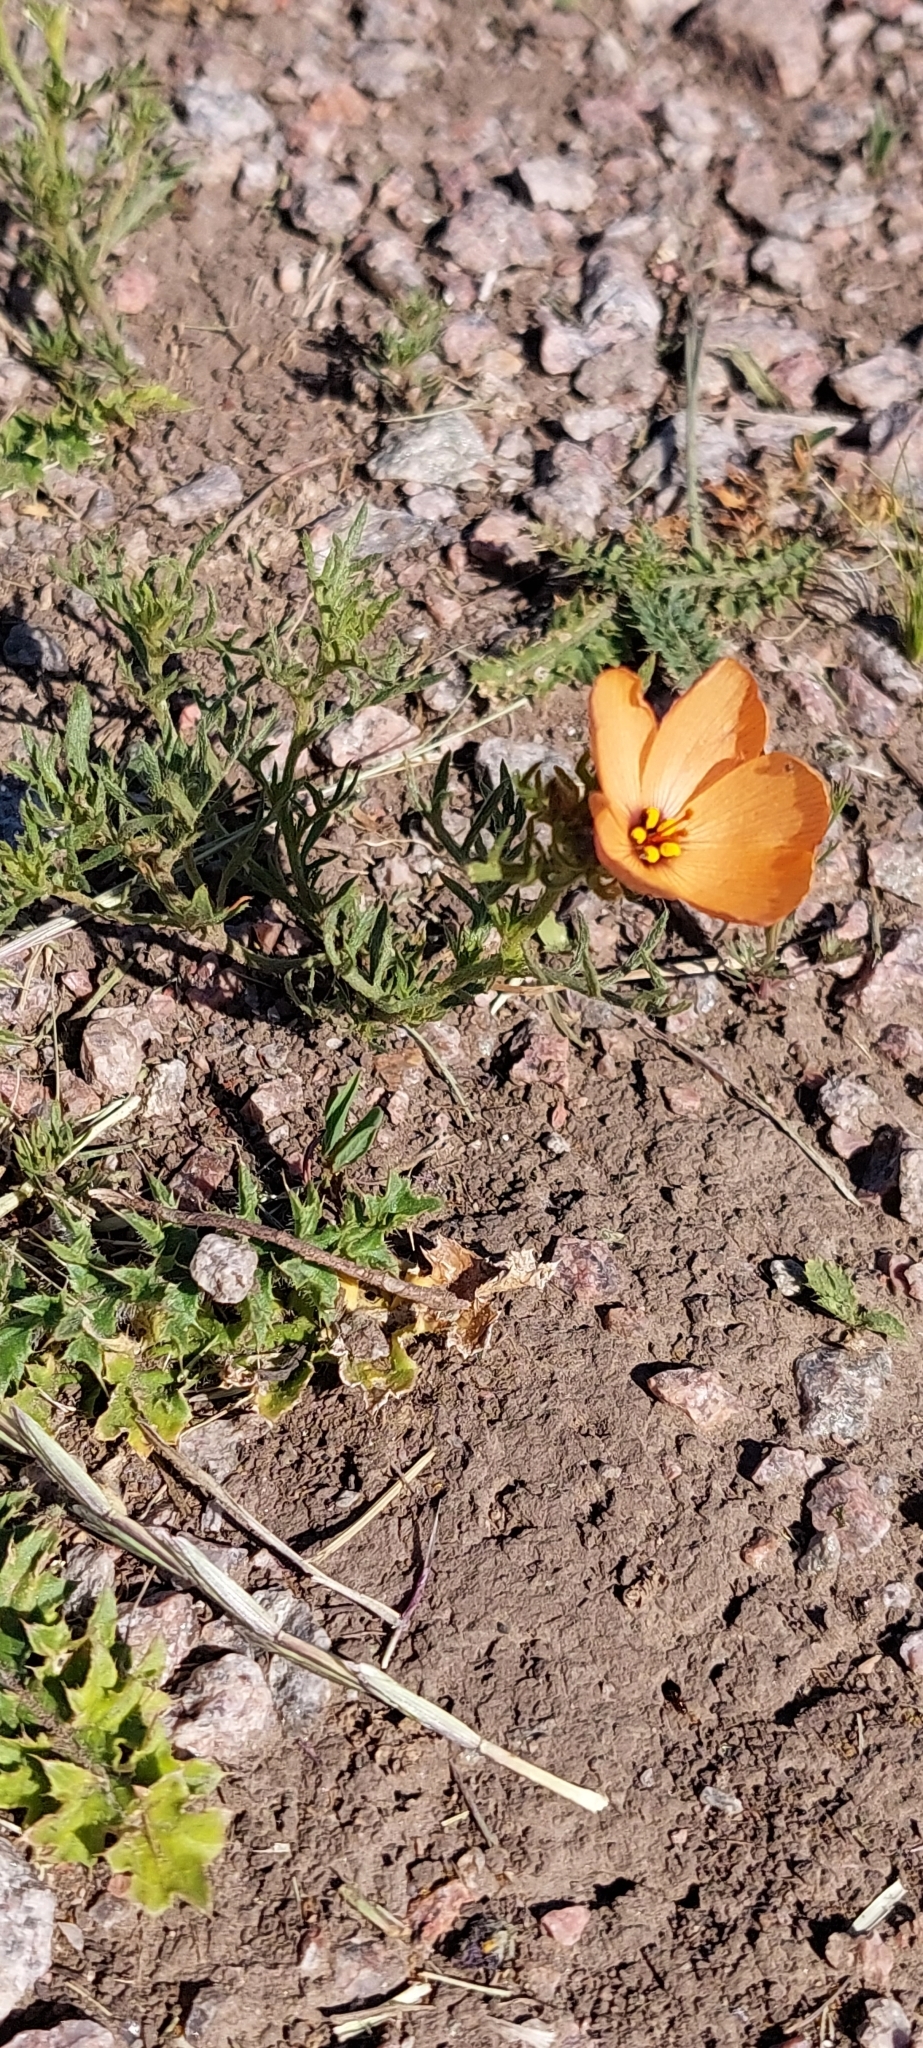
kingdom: Plantae
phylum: Tracheophyta
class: Magnoliopsida
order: Malpighiales
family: Turneraceae
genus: Turnera
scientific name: Turnera sidoides
